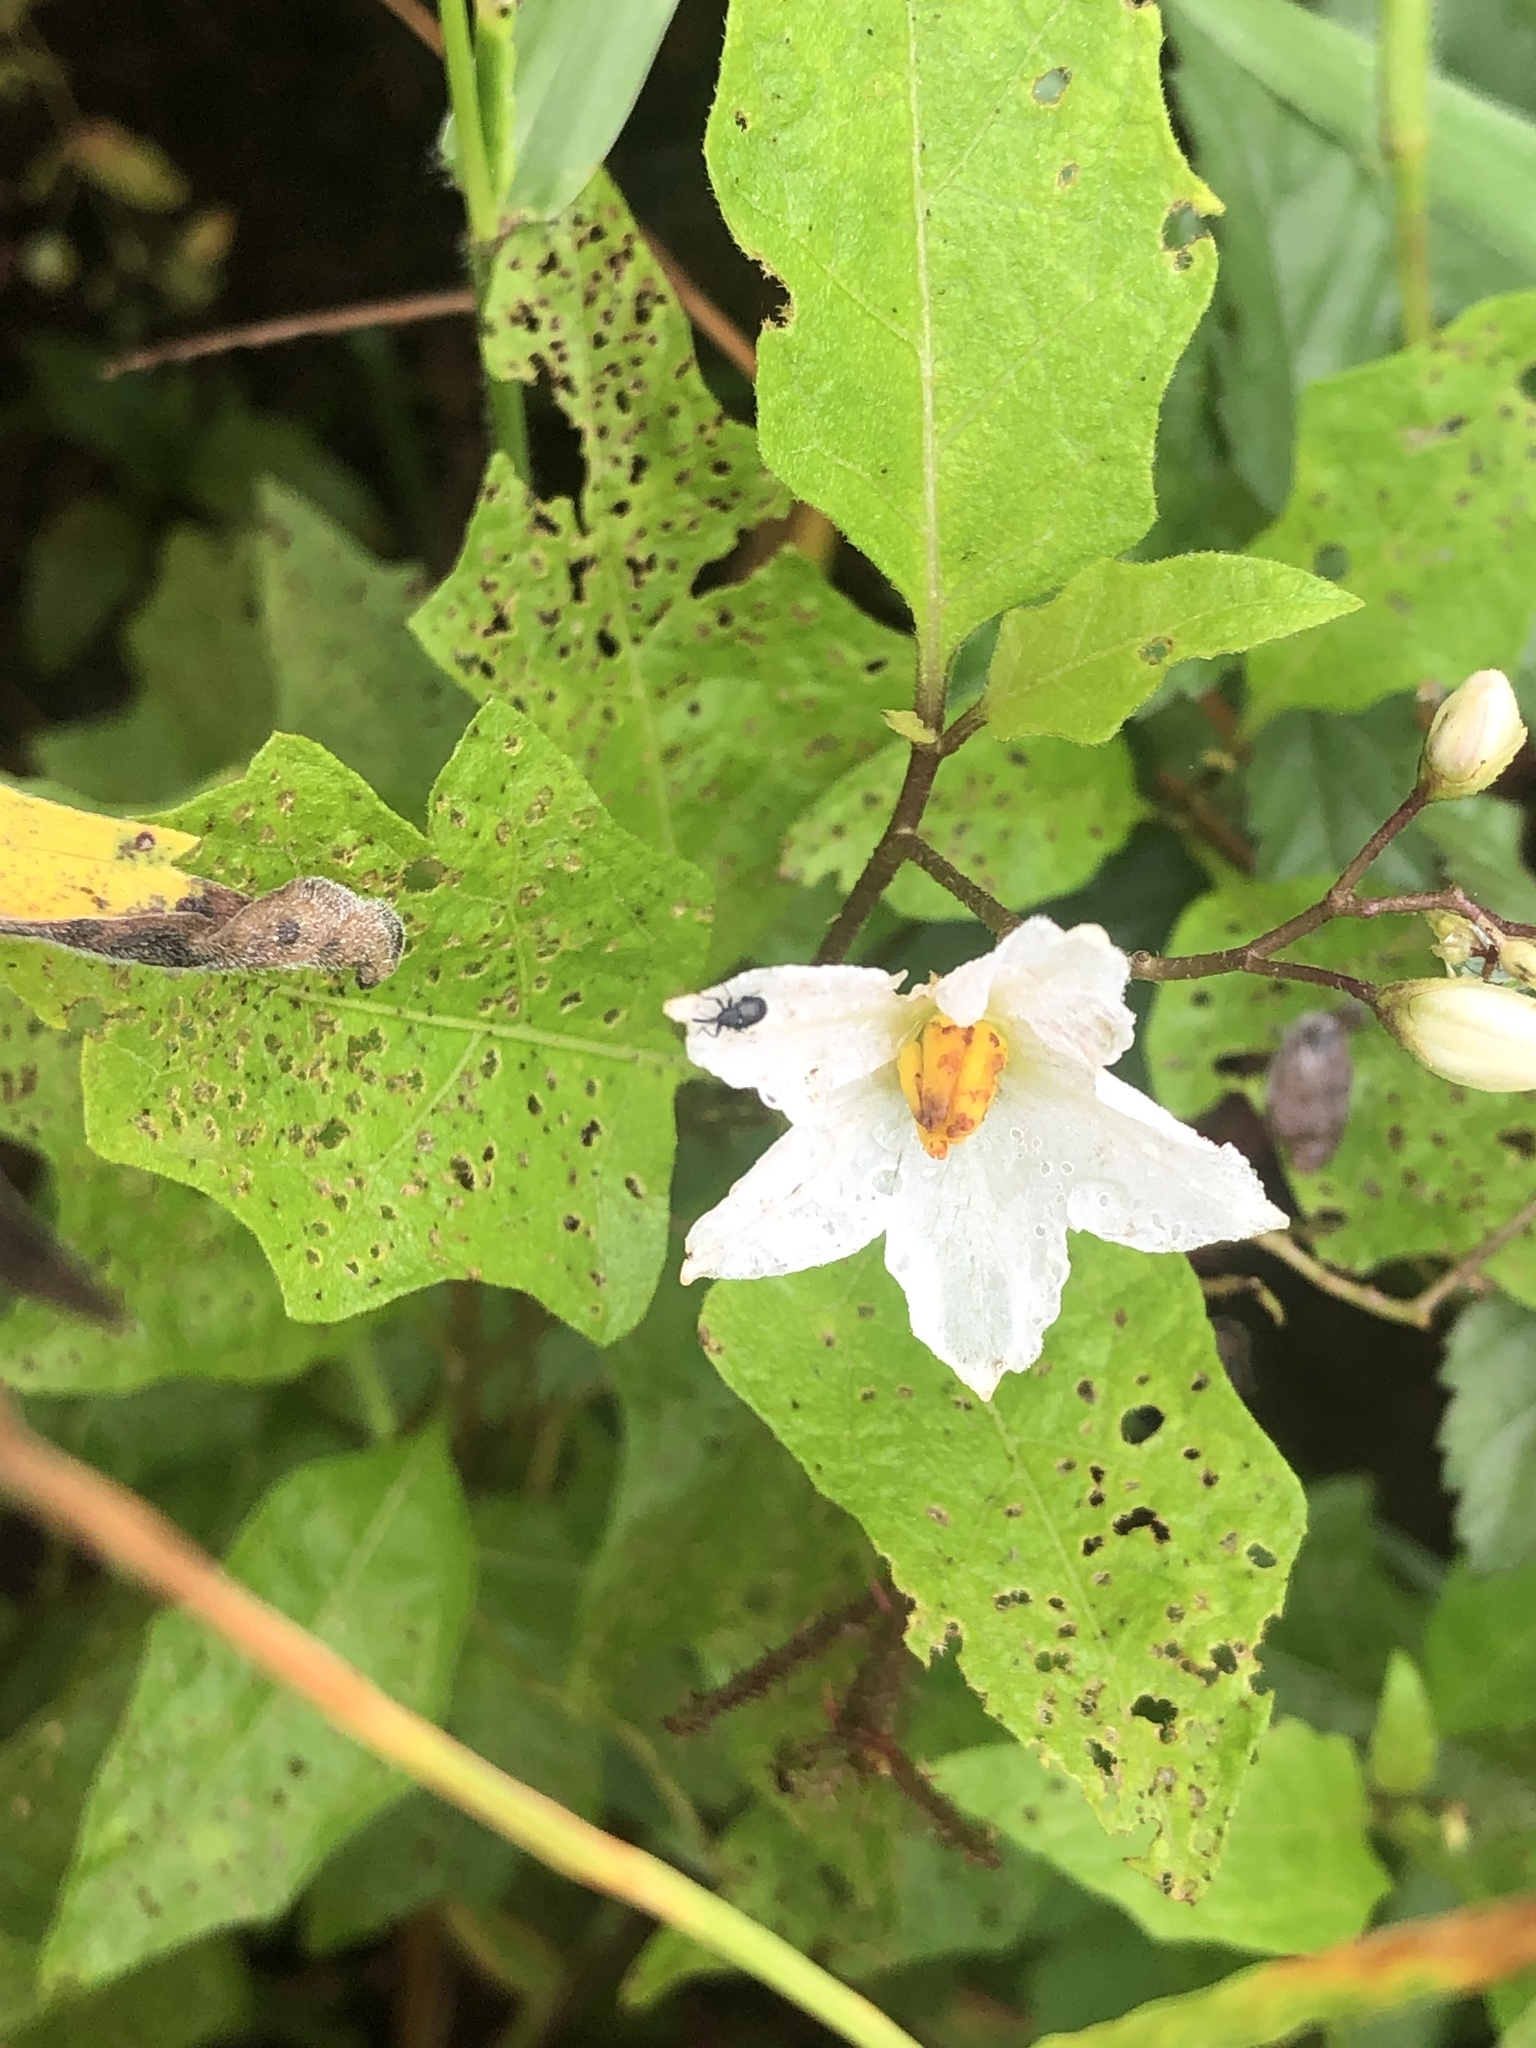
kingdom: Plantae
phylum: Tracheophyta
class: Magnoliopsida
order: Solanales
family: Solanaceae
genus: Solanum
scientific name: Solanum carolinense
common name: Horse-nettle
